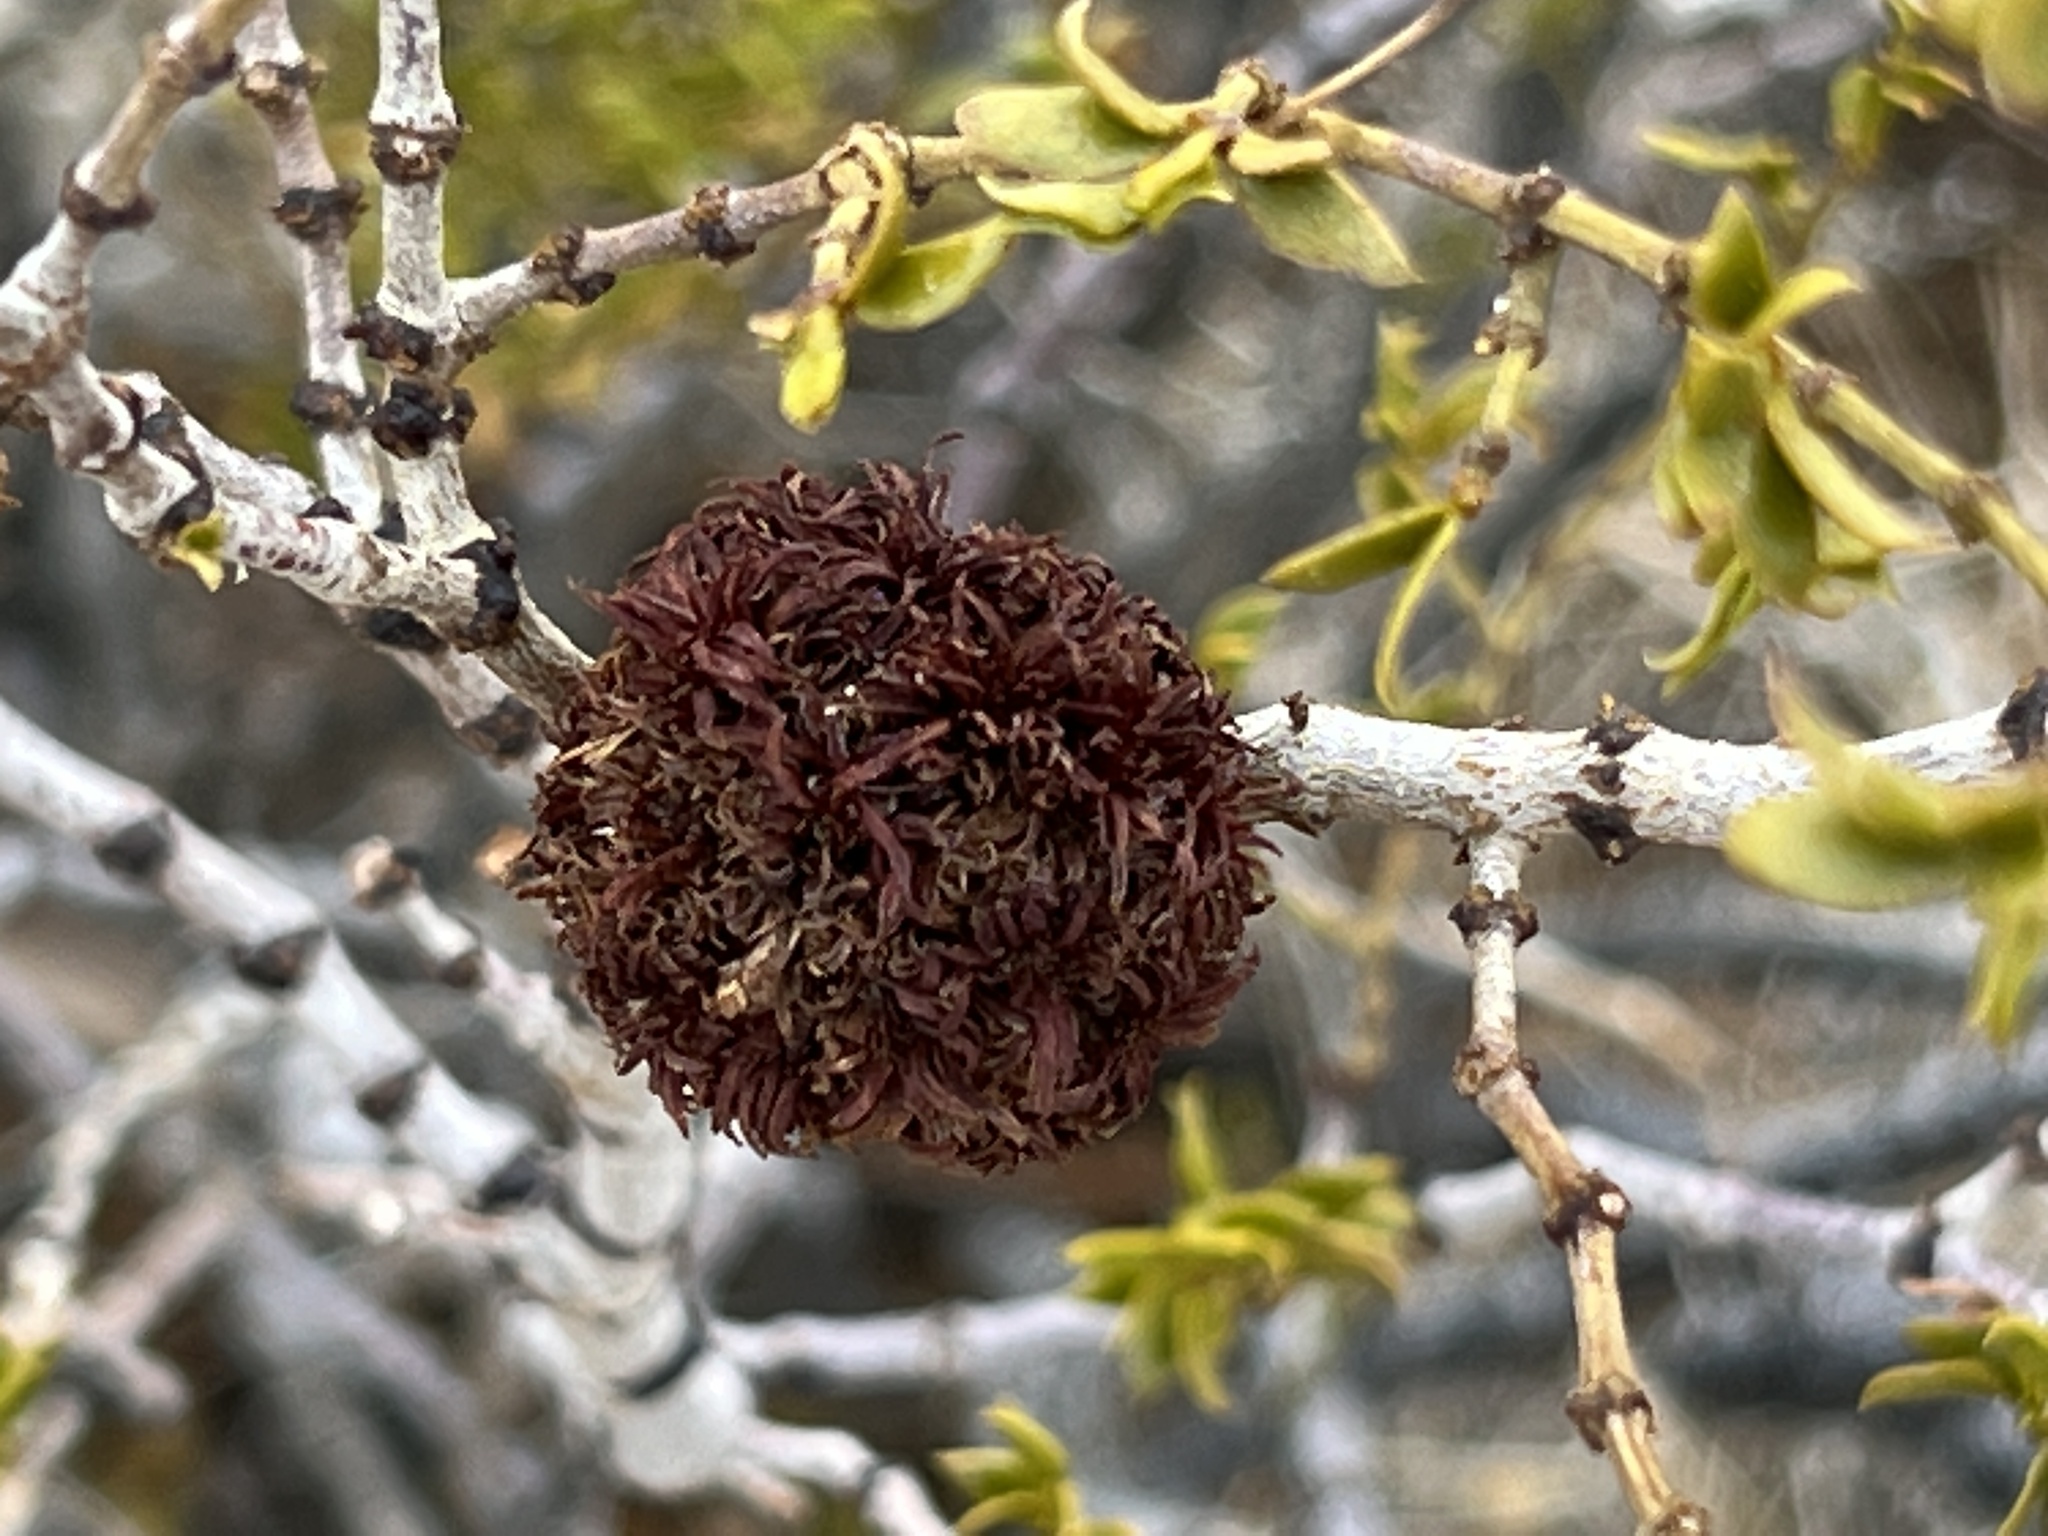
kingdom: Animalia
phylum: Arthropoda
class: Insecta
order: Diptera
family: Cecidomyiidae
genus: Asphondylia
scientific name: Asphondylia auripila
